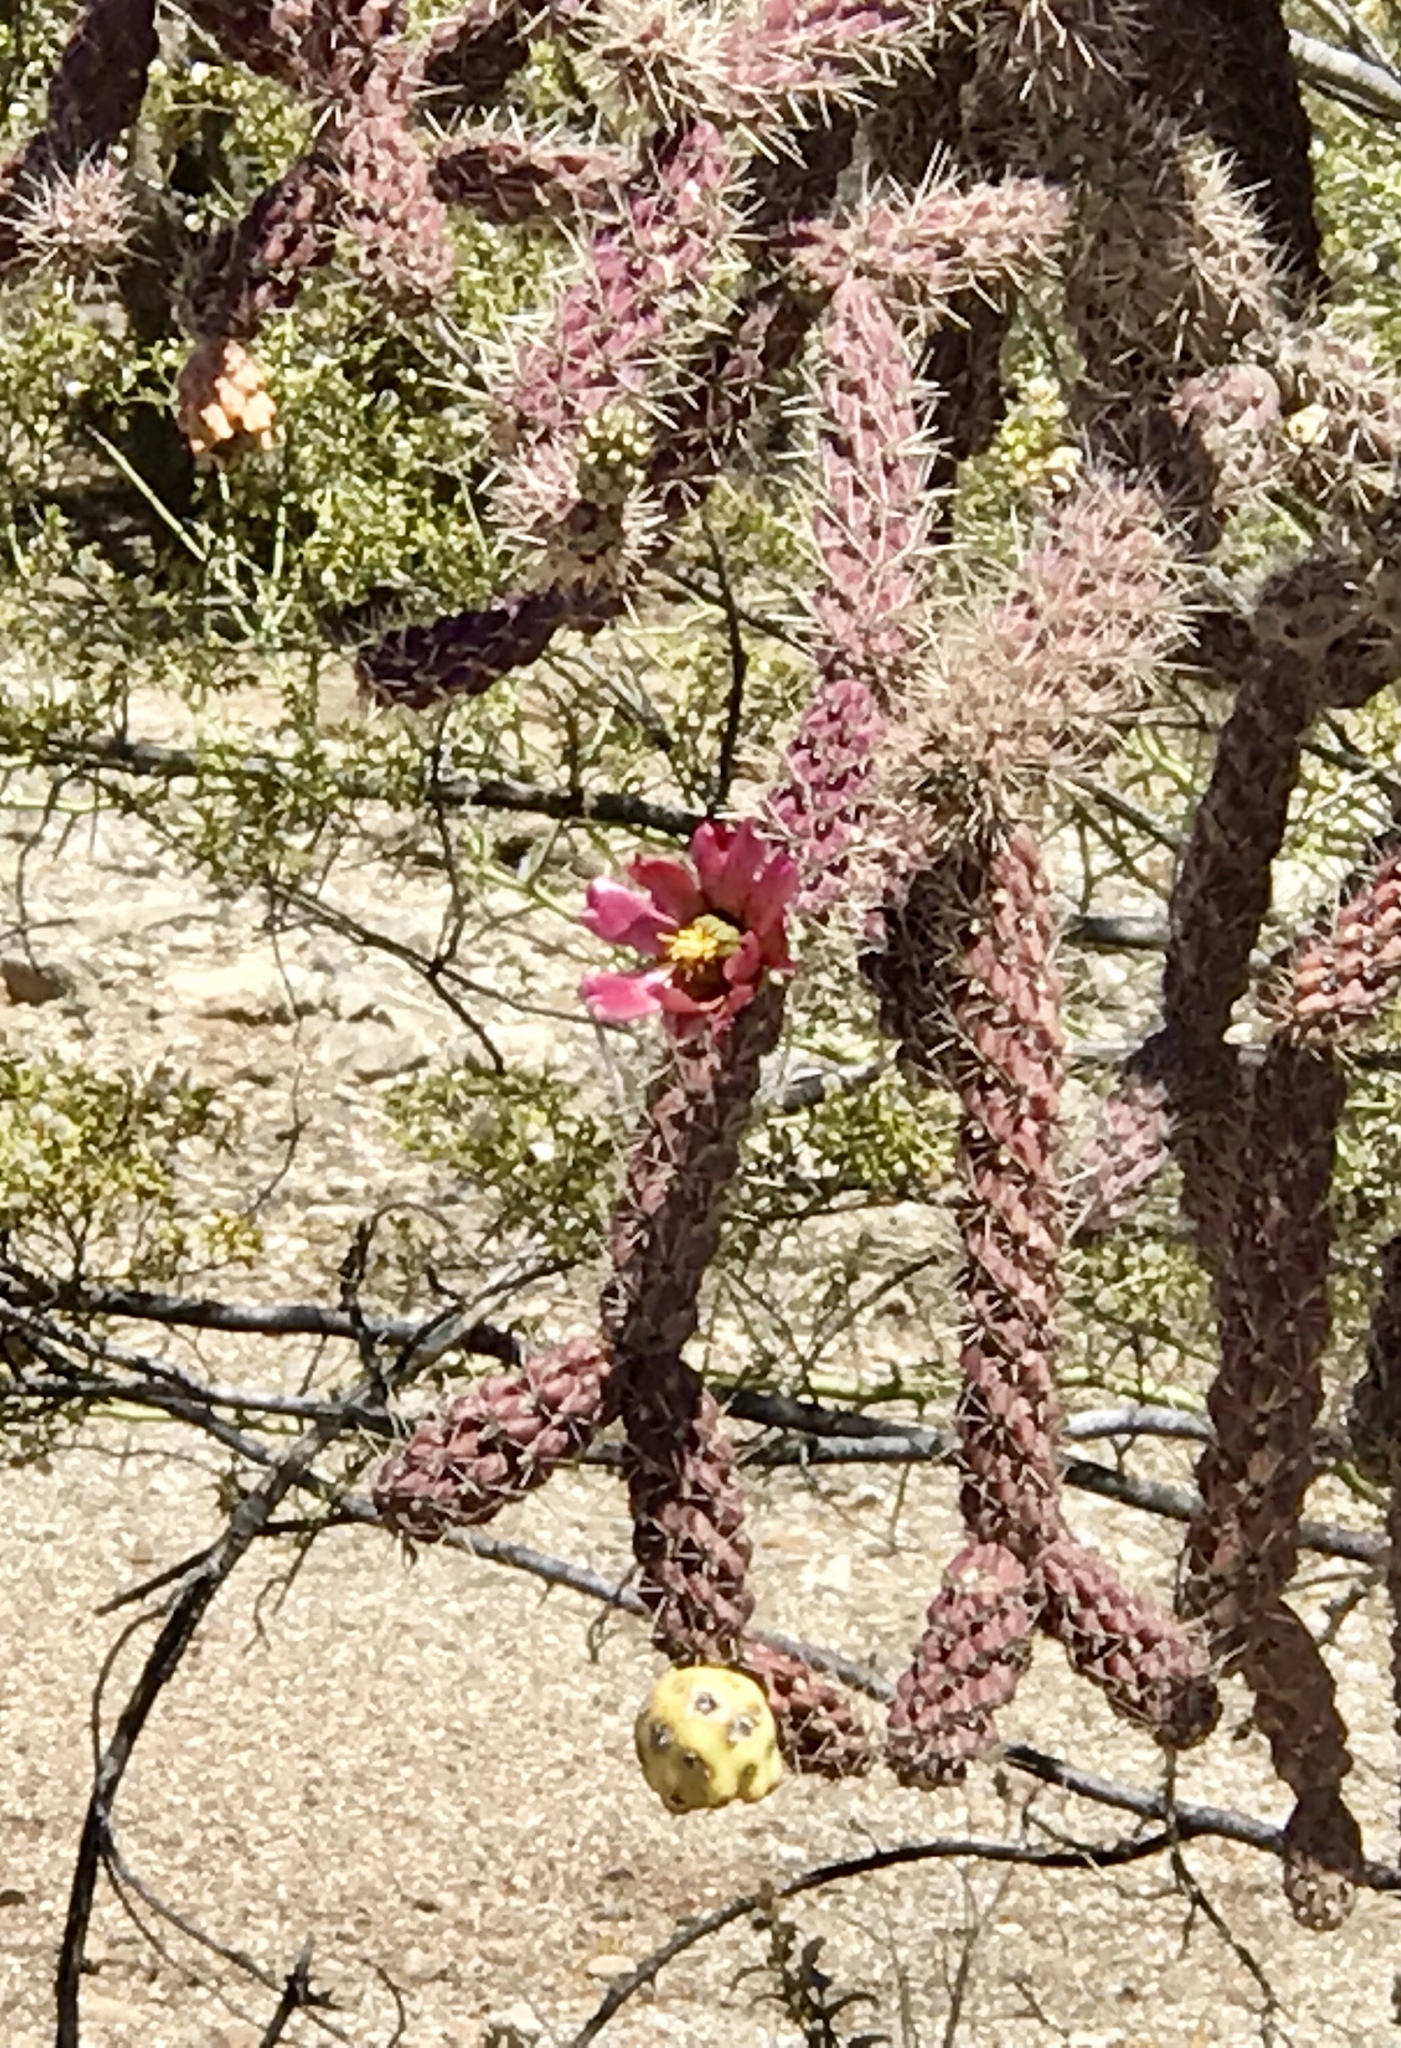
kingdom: Plantae
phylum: Tracheophyta
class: Magnoliopsida
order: Caryophyllales
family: Cactaceae
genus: Cylindropuntia
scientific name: Cylindropuntia thurberi
